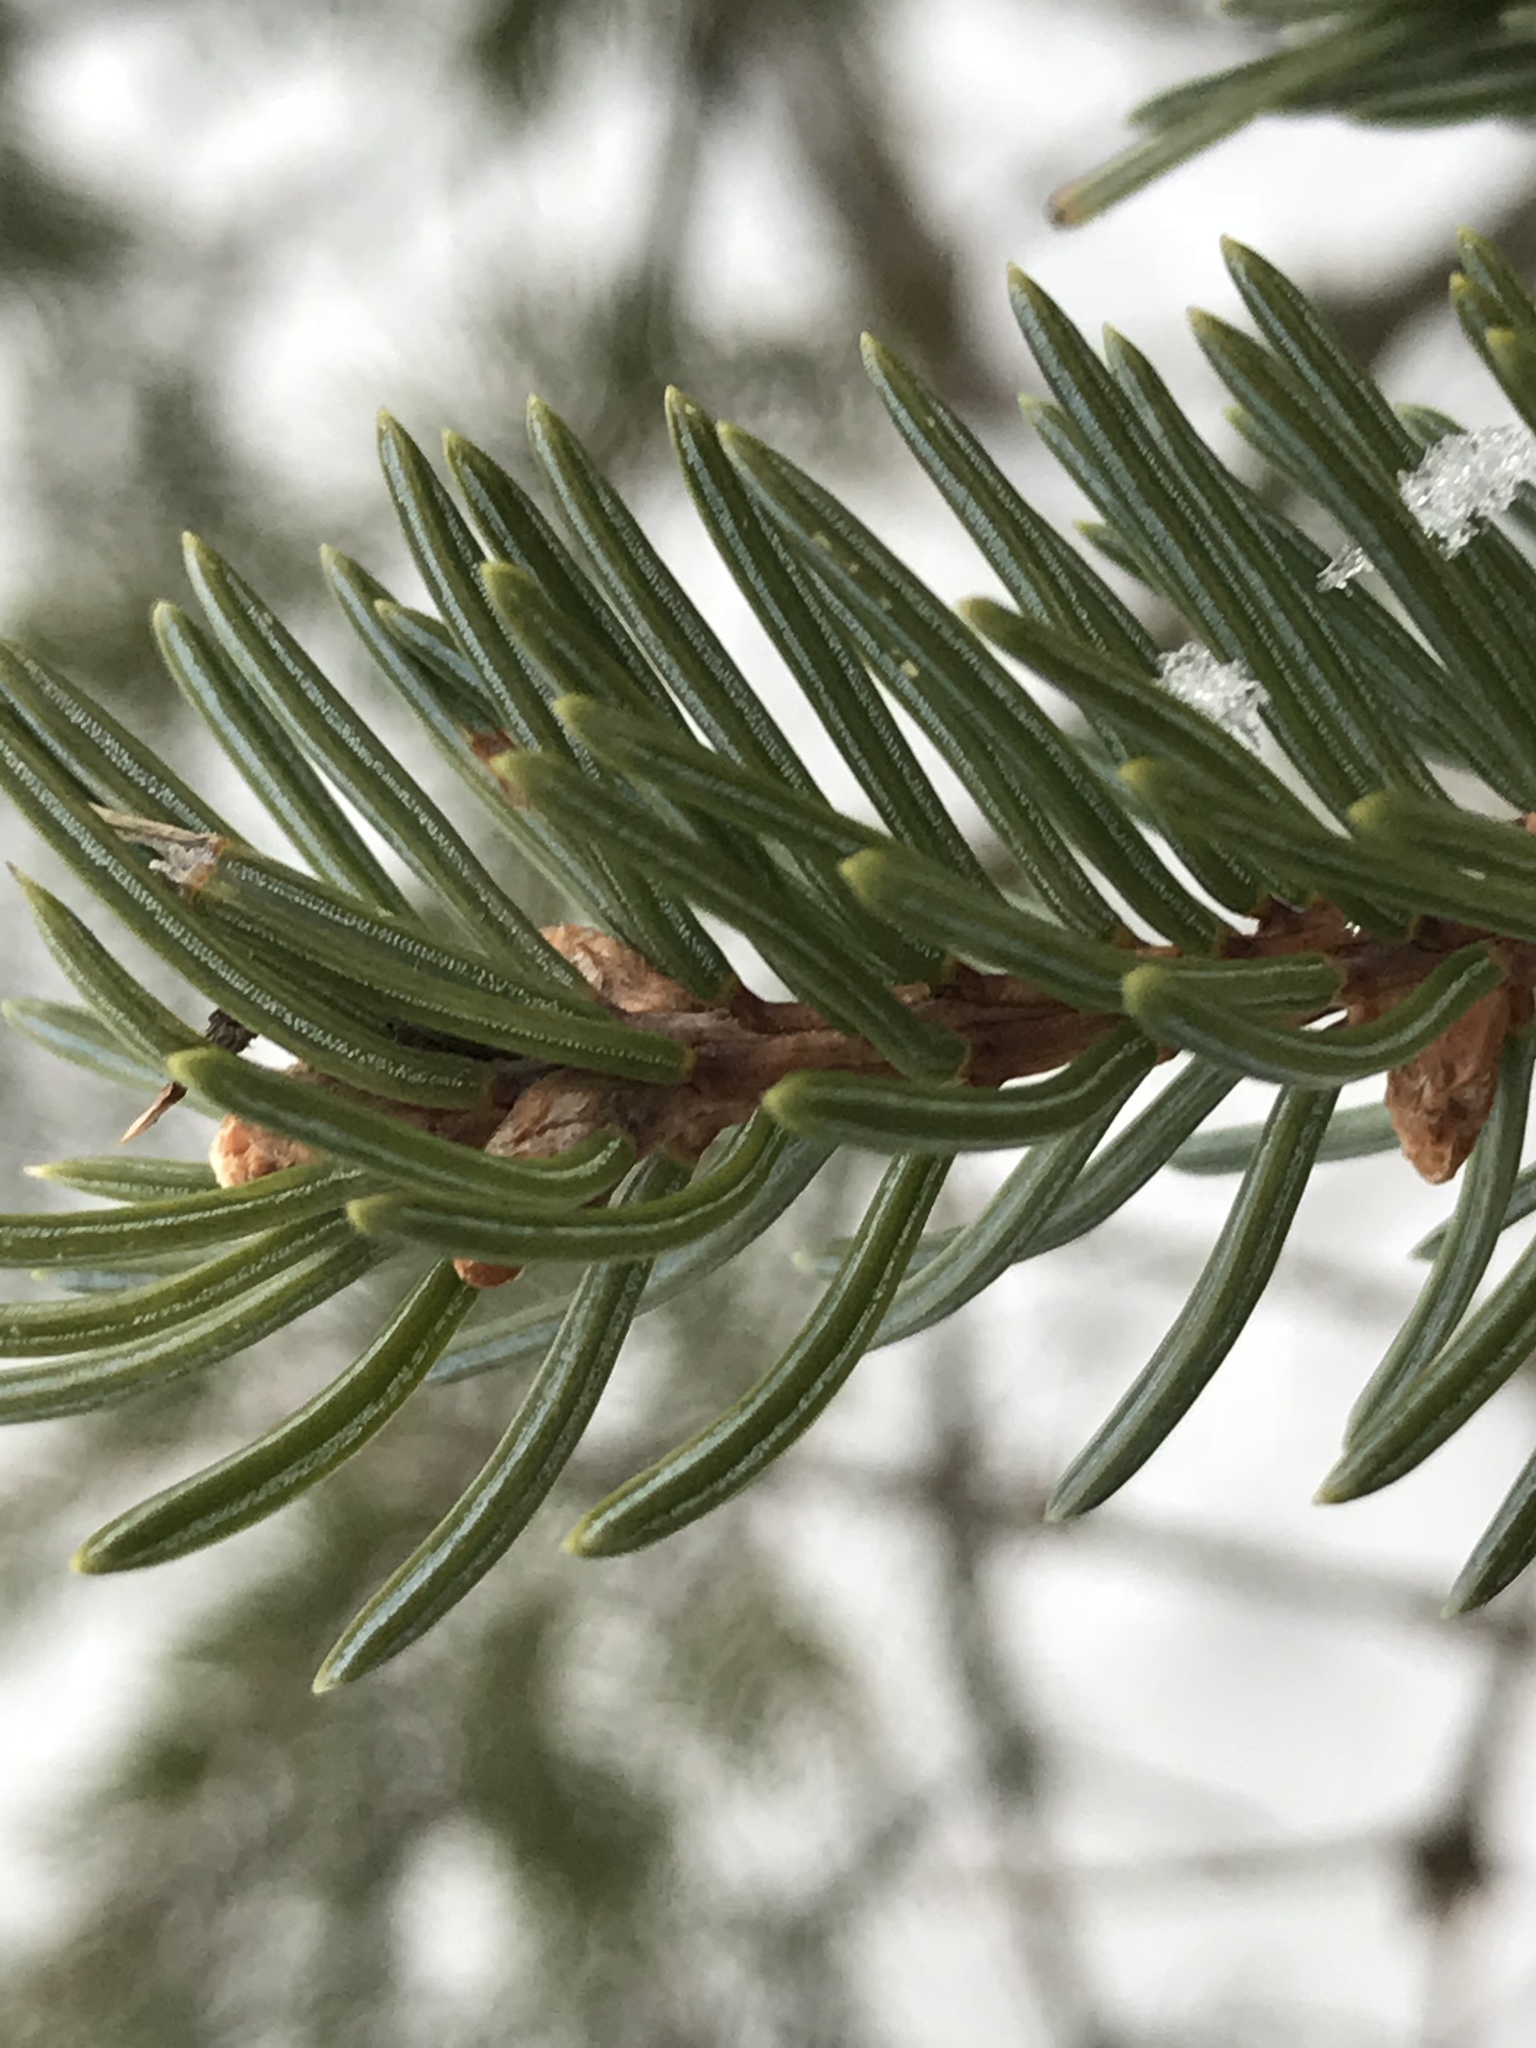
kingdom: Plantae
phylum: Tracheophyta
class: Pinopsida
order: Pinales
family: Pinaceae
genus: Picea
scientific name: Picea glauca
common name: White spruce
